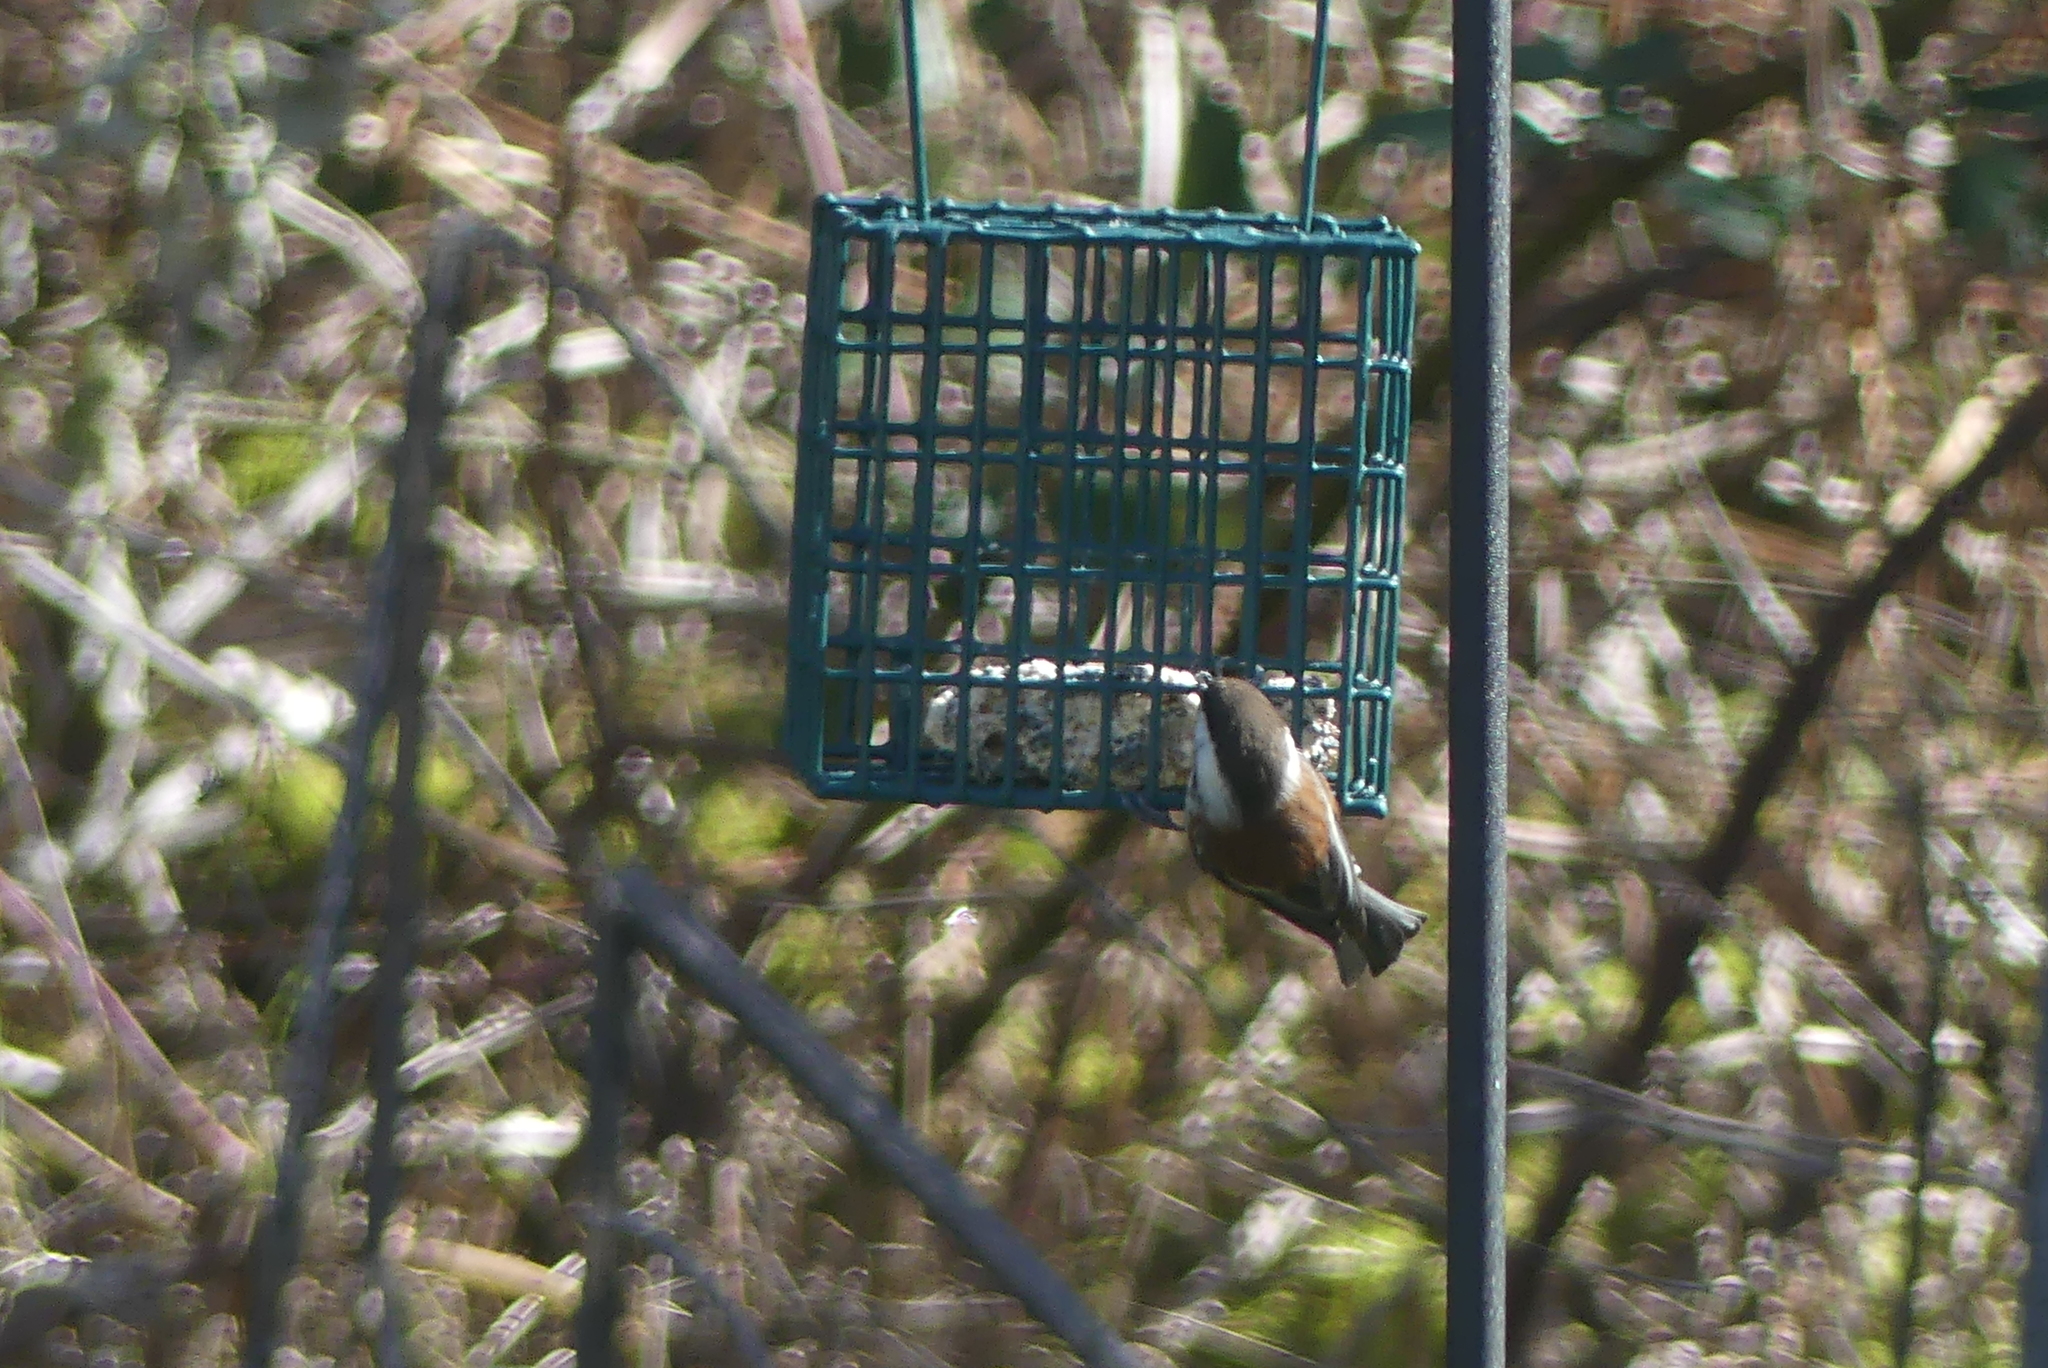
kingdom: Animalia
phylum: Chordata
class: Aves
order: Passeriformes
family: Paridae
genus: Poecile
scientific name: Poecile rufescens
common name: Chestnut-backed chickadee
